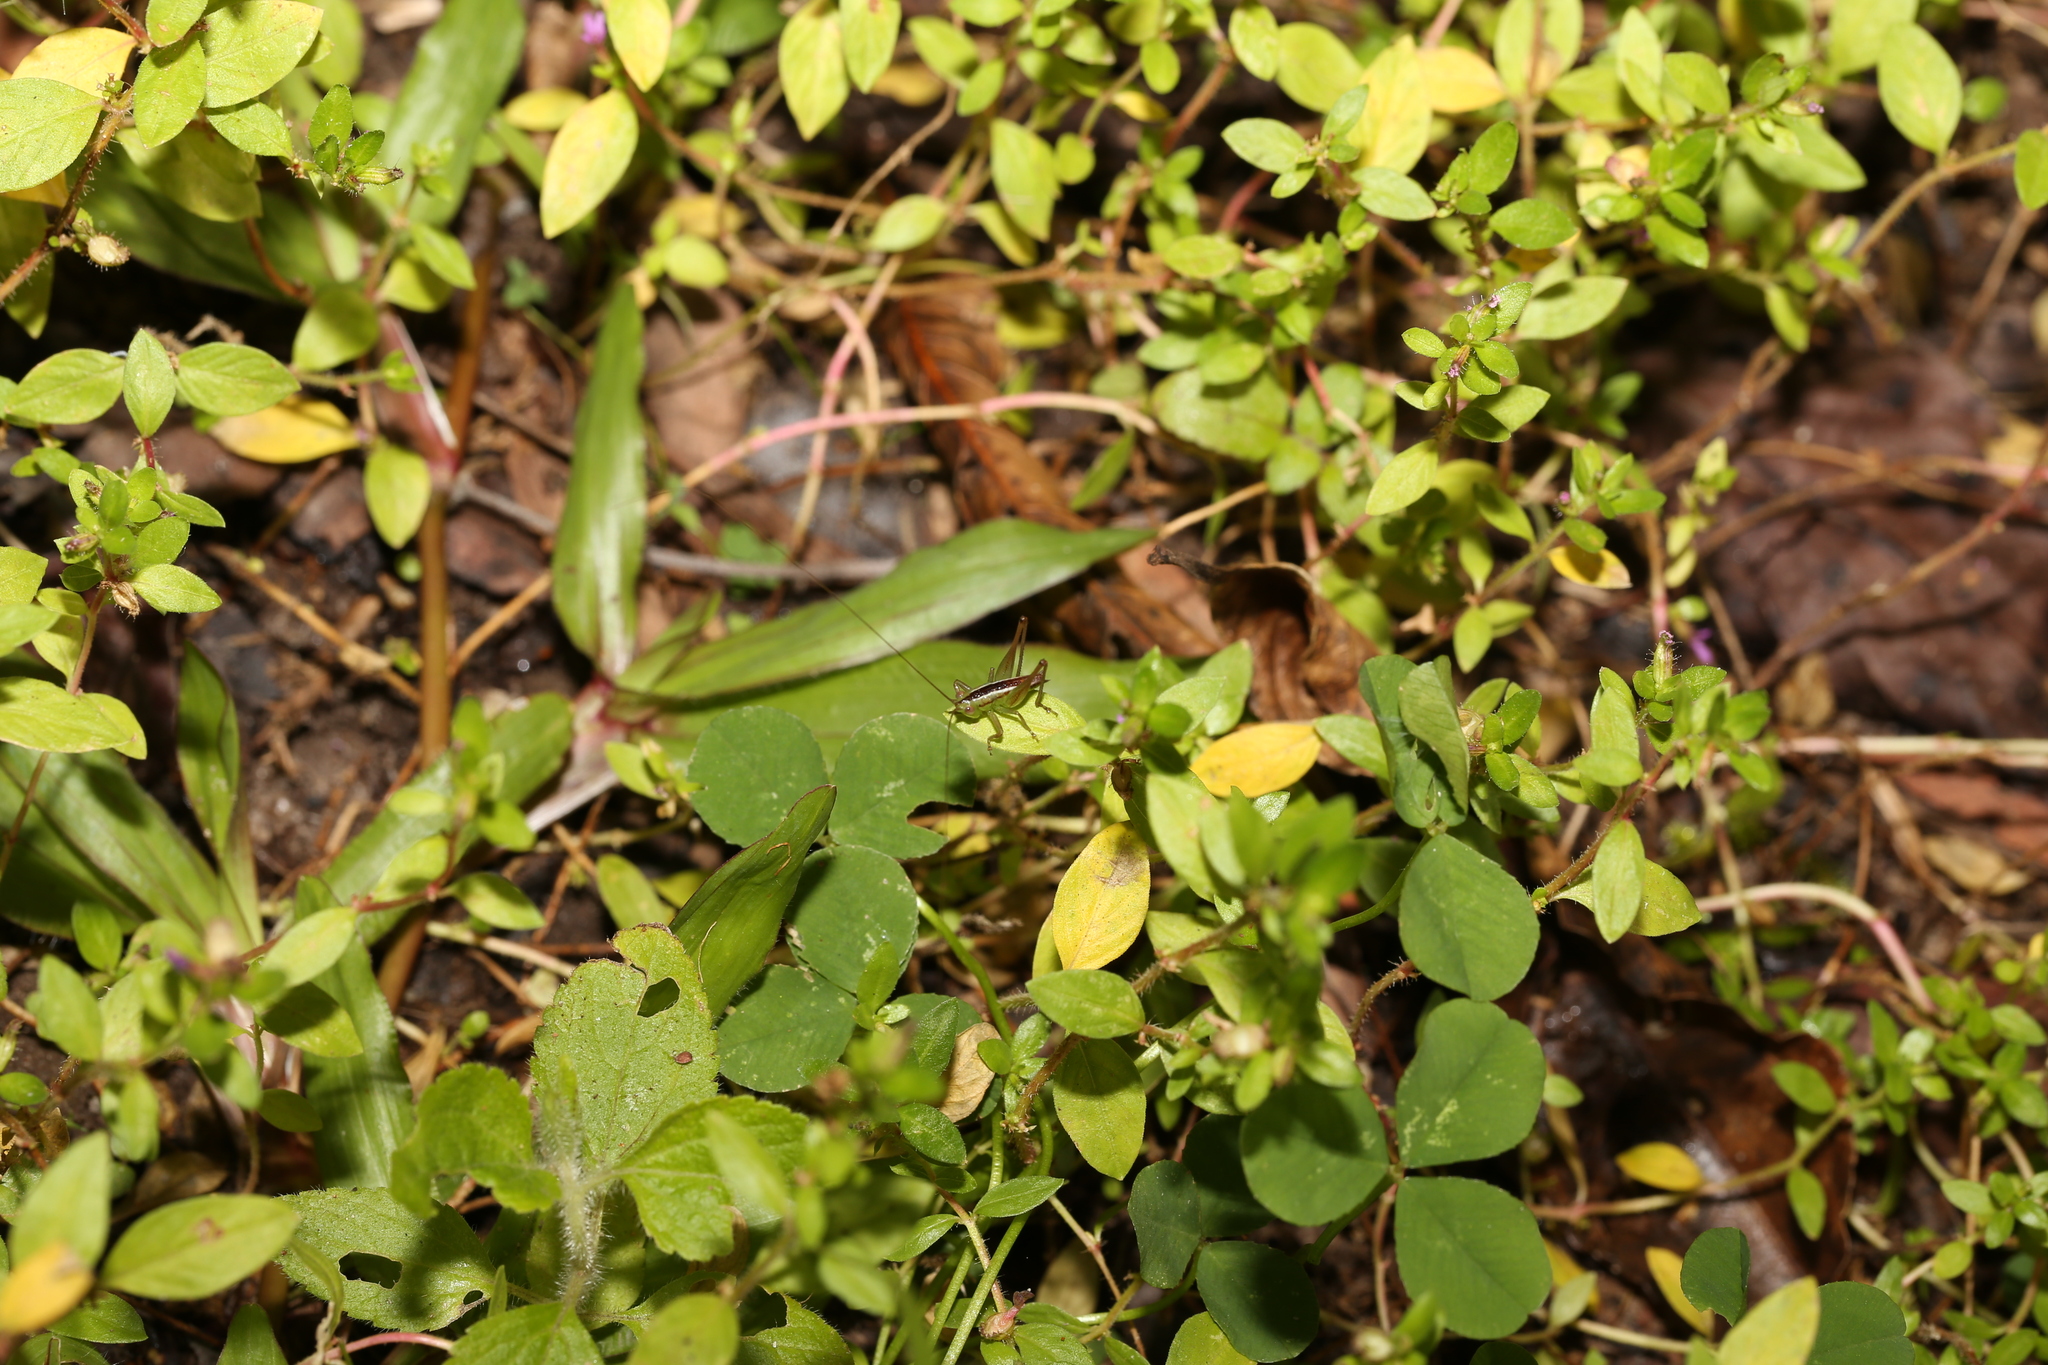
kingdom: Animalia
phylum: Arthropoda
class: Insecta
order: Orthoptera
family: Tettigoniidae
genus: Conocephalus
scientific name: Conocephalus semivittatus
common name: Blackish meadow katydid
